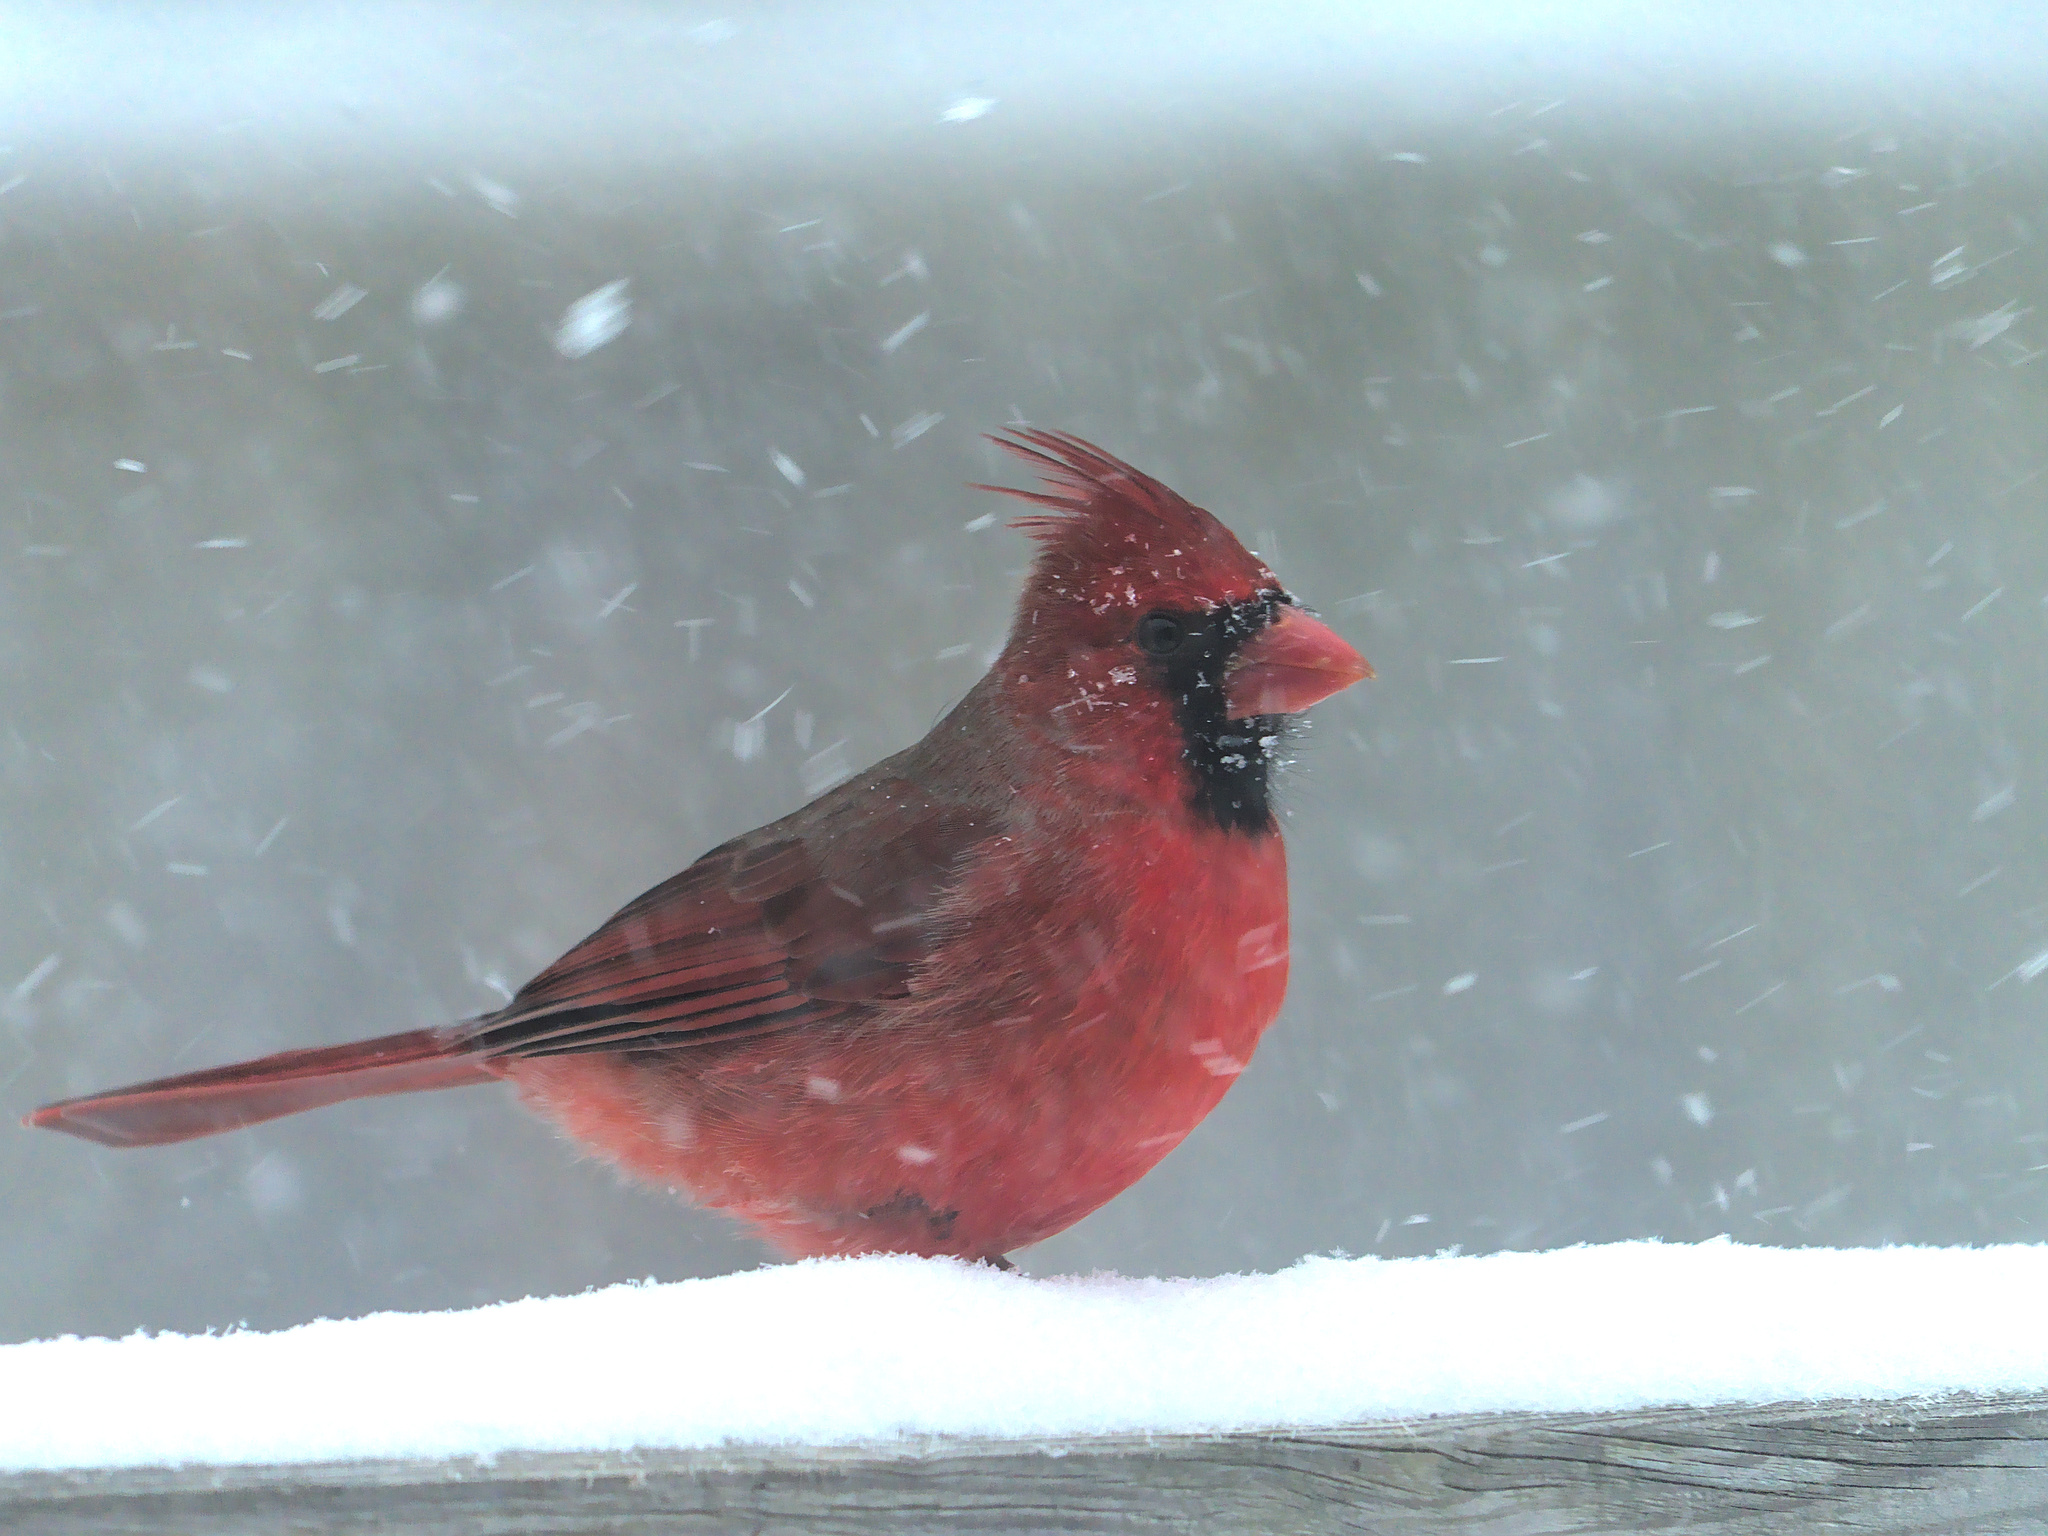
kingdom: Animalia
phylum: Chordata
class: Aves
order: Passeriformes
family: Cardinalidae
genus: Cardinalis
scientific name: Cardinalis cardinalis
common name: Northern cardinal
